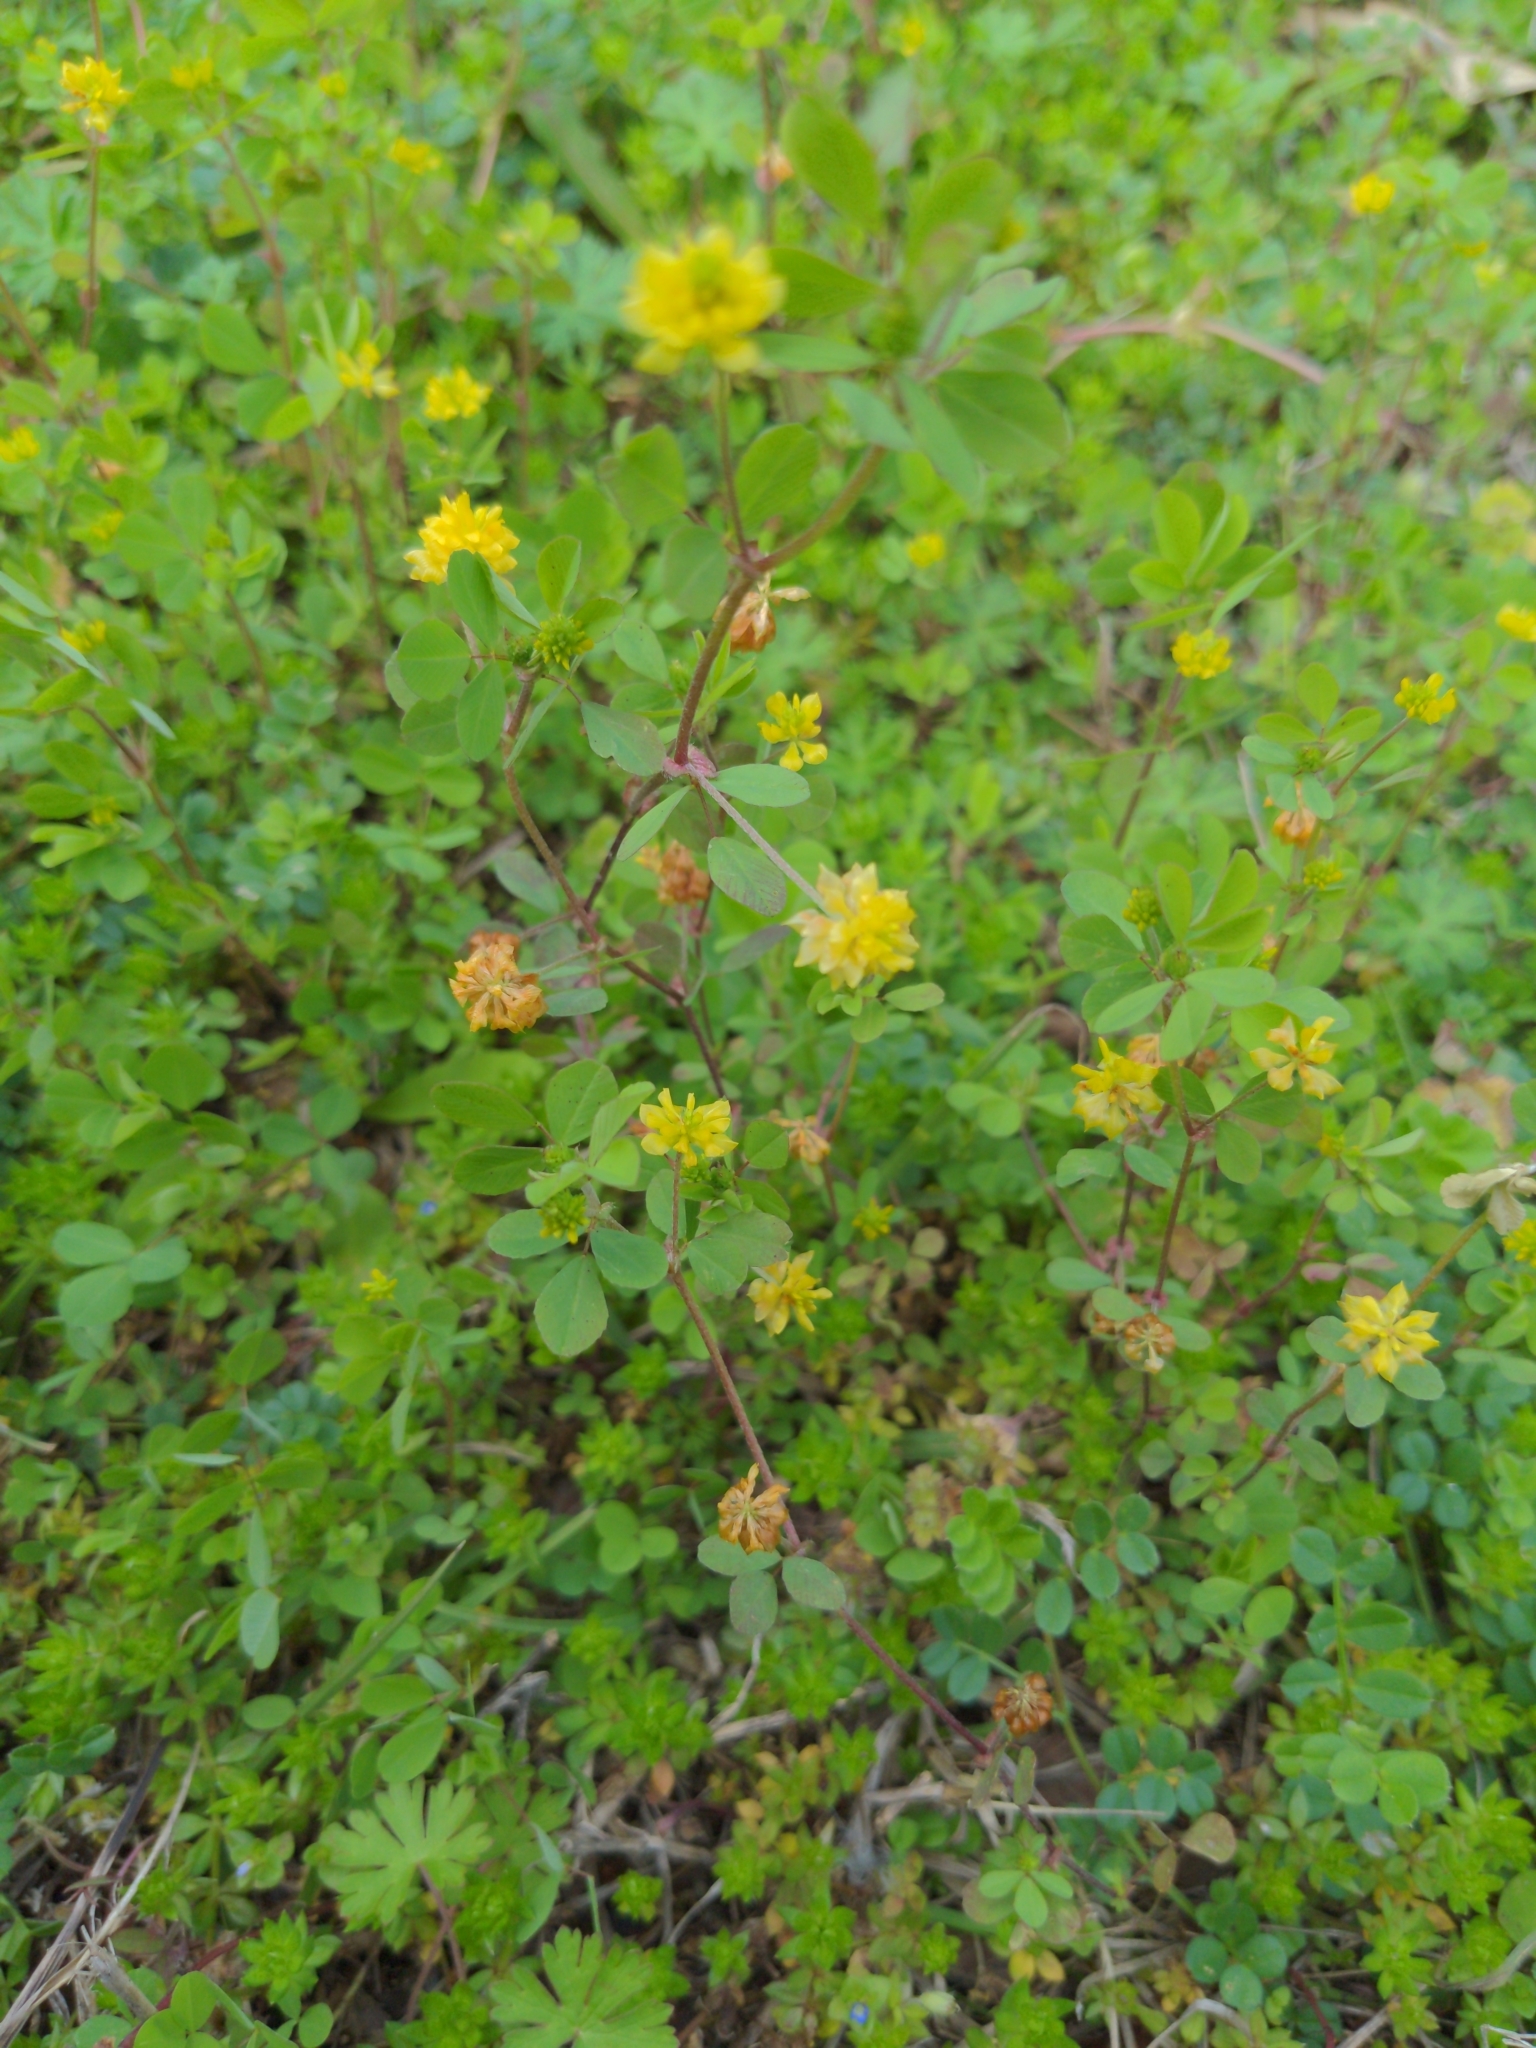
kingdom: Plantae
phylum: Tracheophyta
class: Magnoliopsida
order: Fabales
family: Fabaceae
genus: Trifolium
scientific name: Trifolium dubium
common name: Suckling clover
